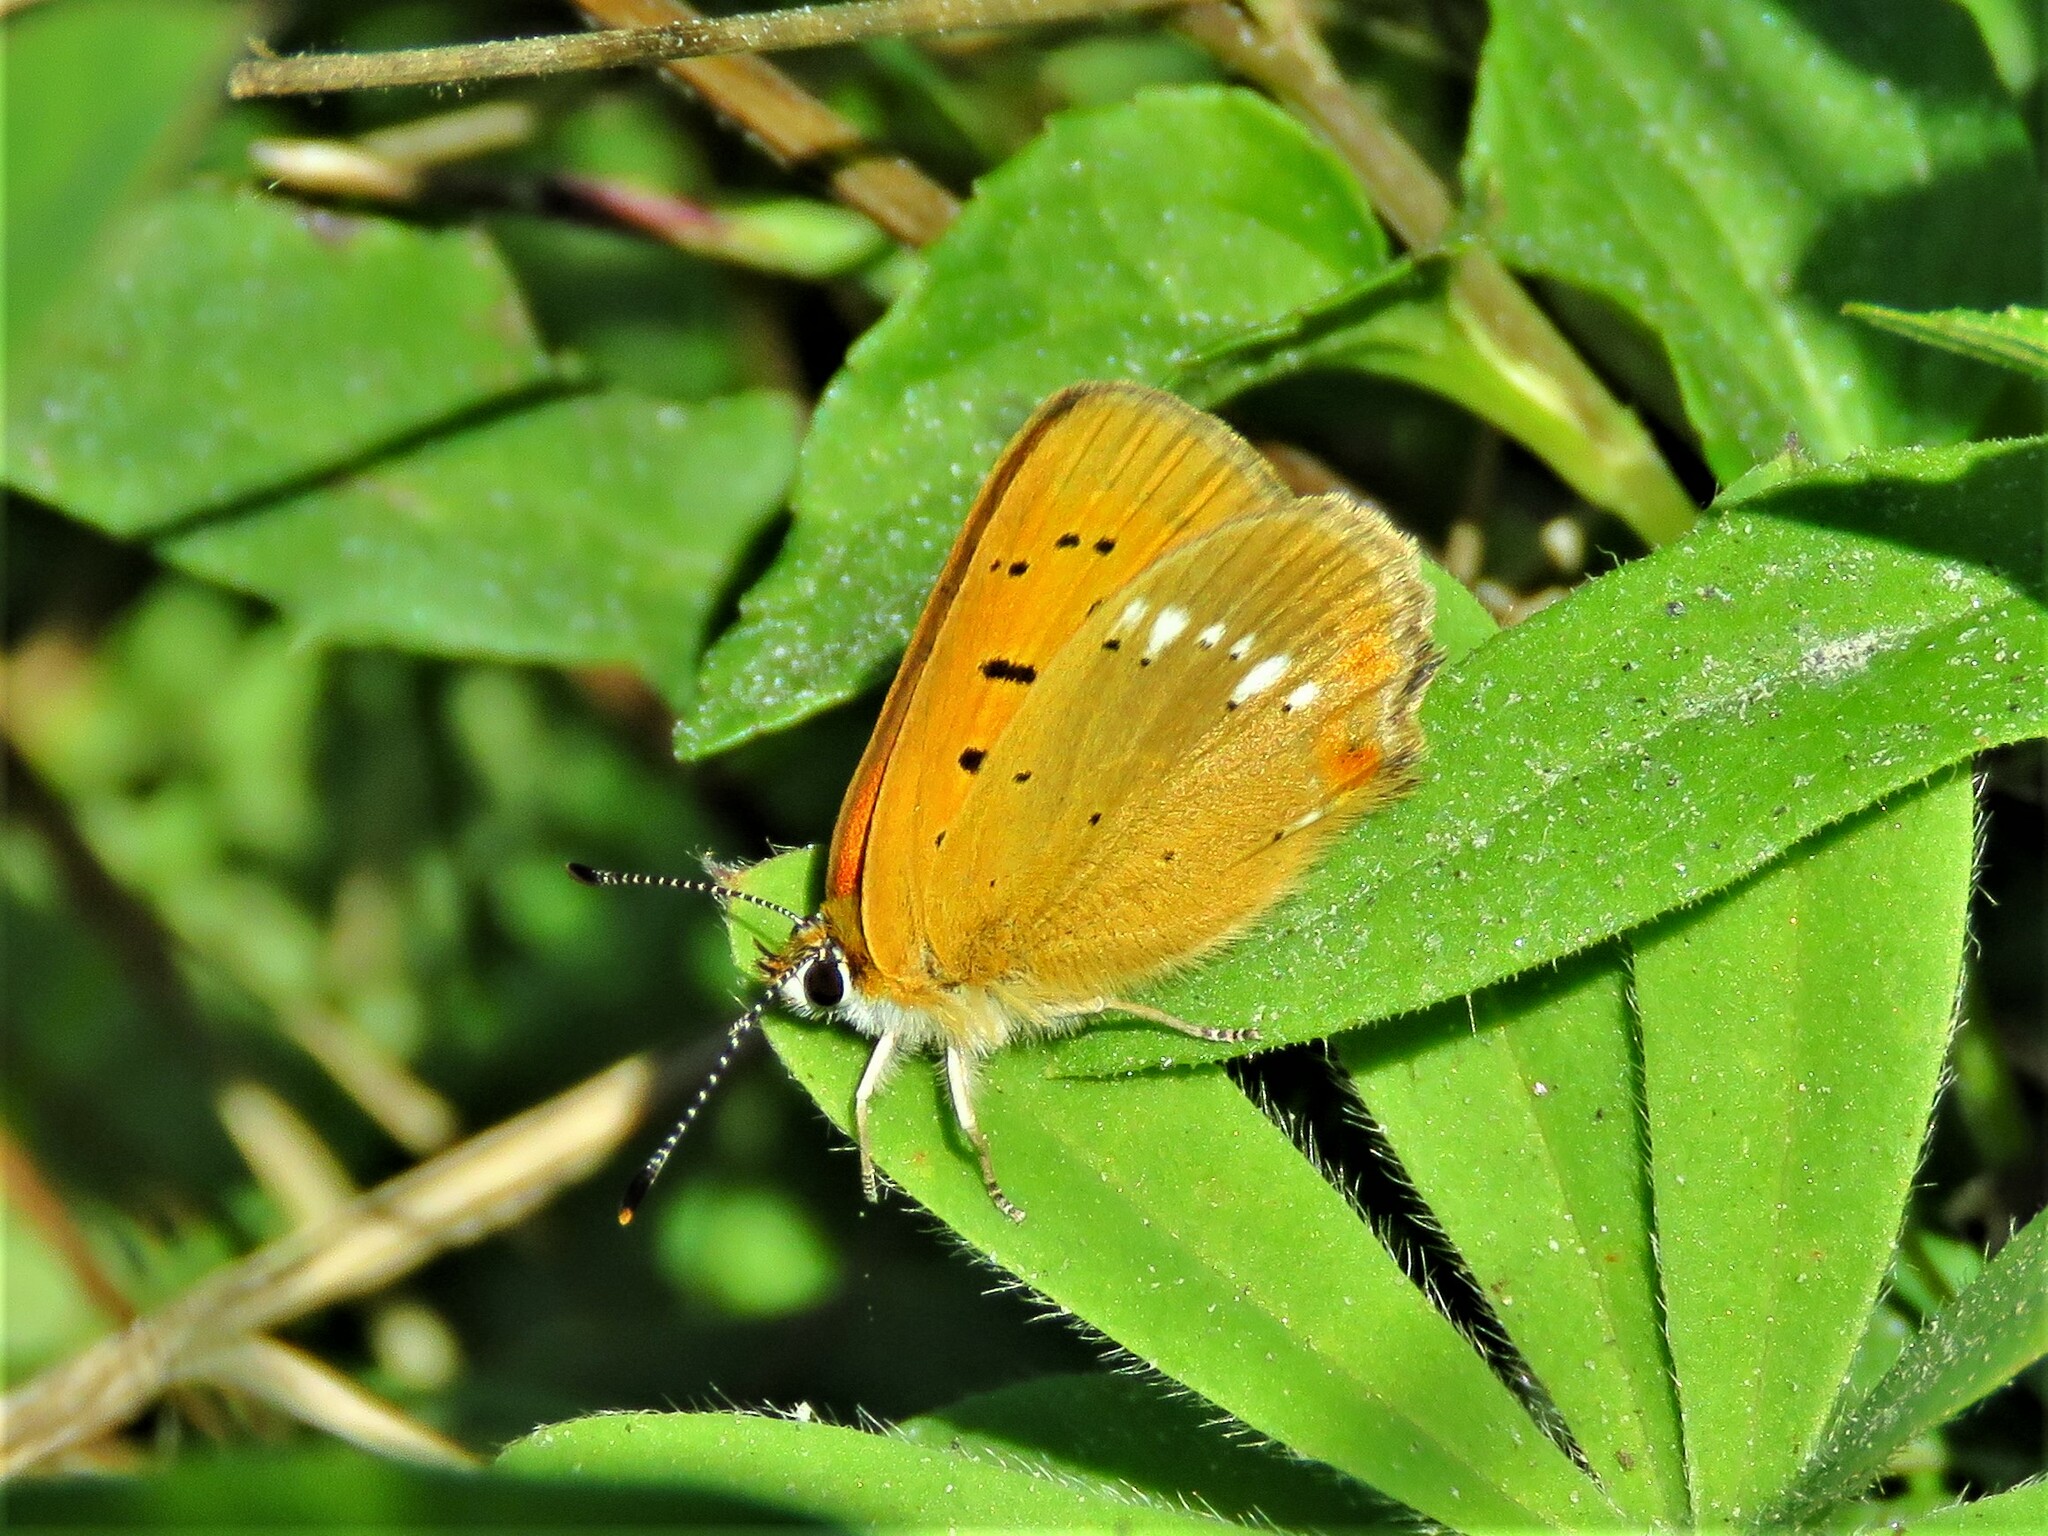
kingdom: Animalia
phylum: Arthropoda
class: Insecta
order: Lepidoptera
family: Lycaenidae
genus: Lycaena
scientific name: Lycaena virgaureae
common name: Scarce copper
